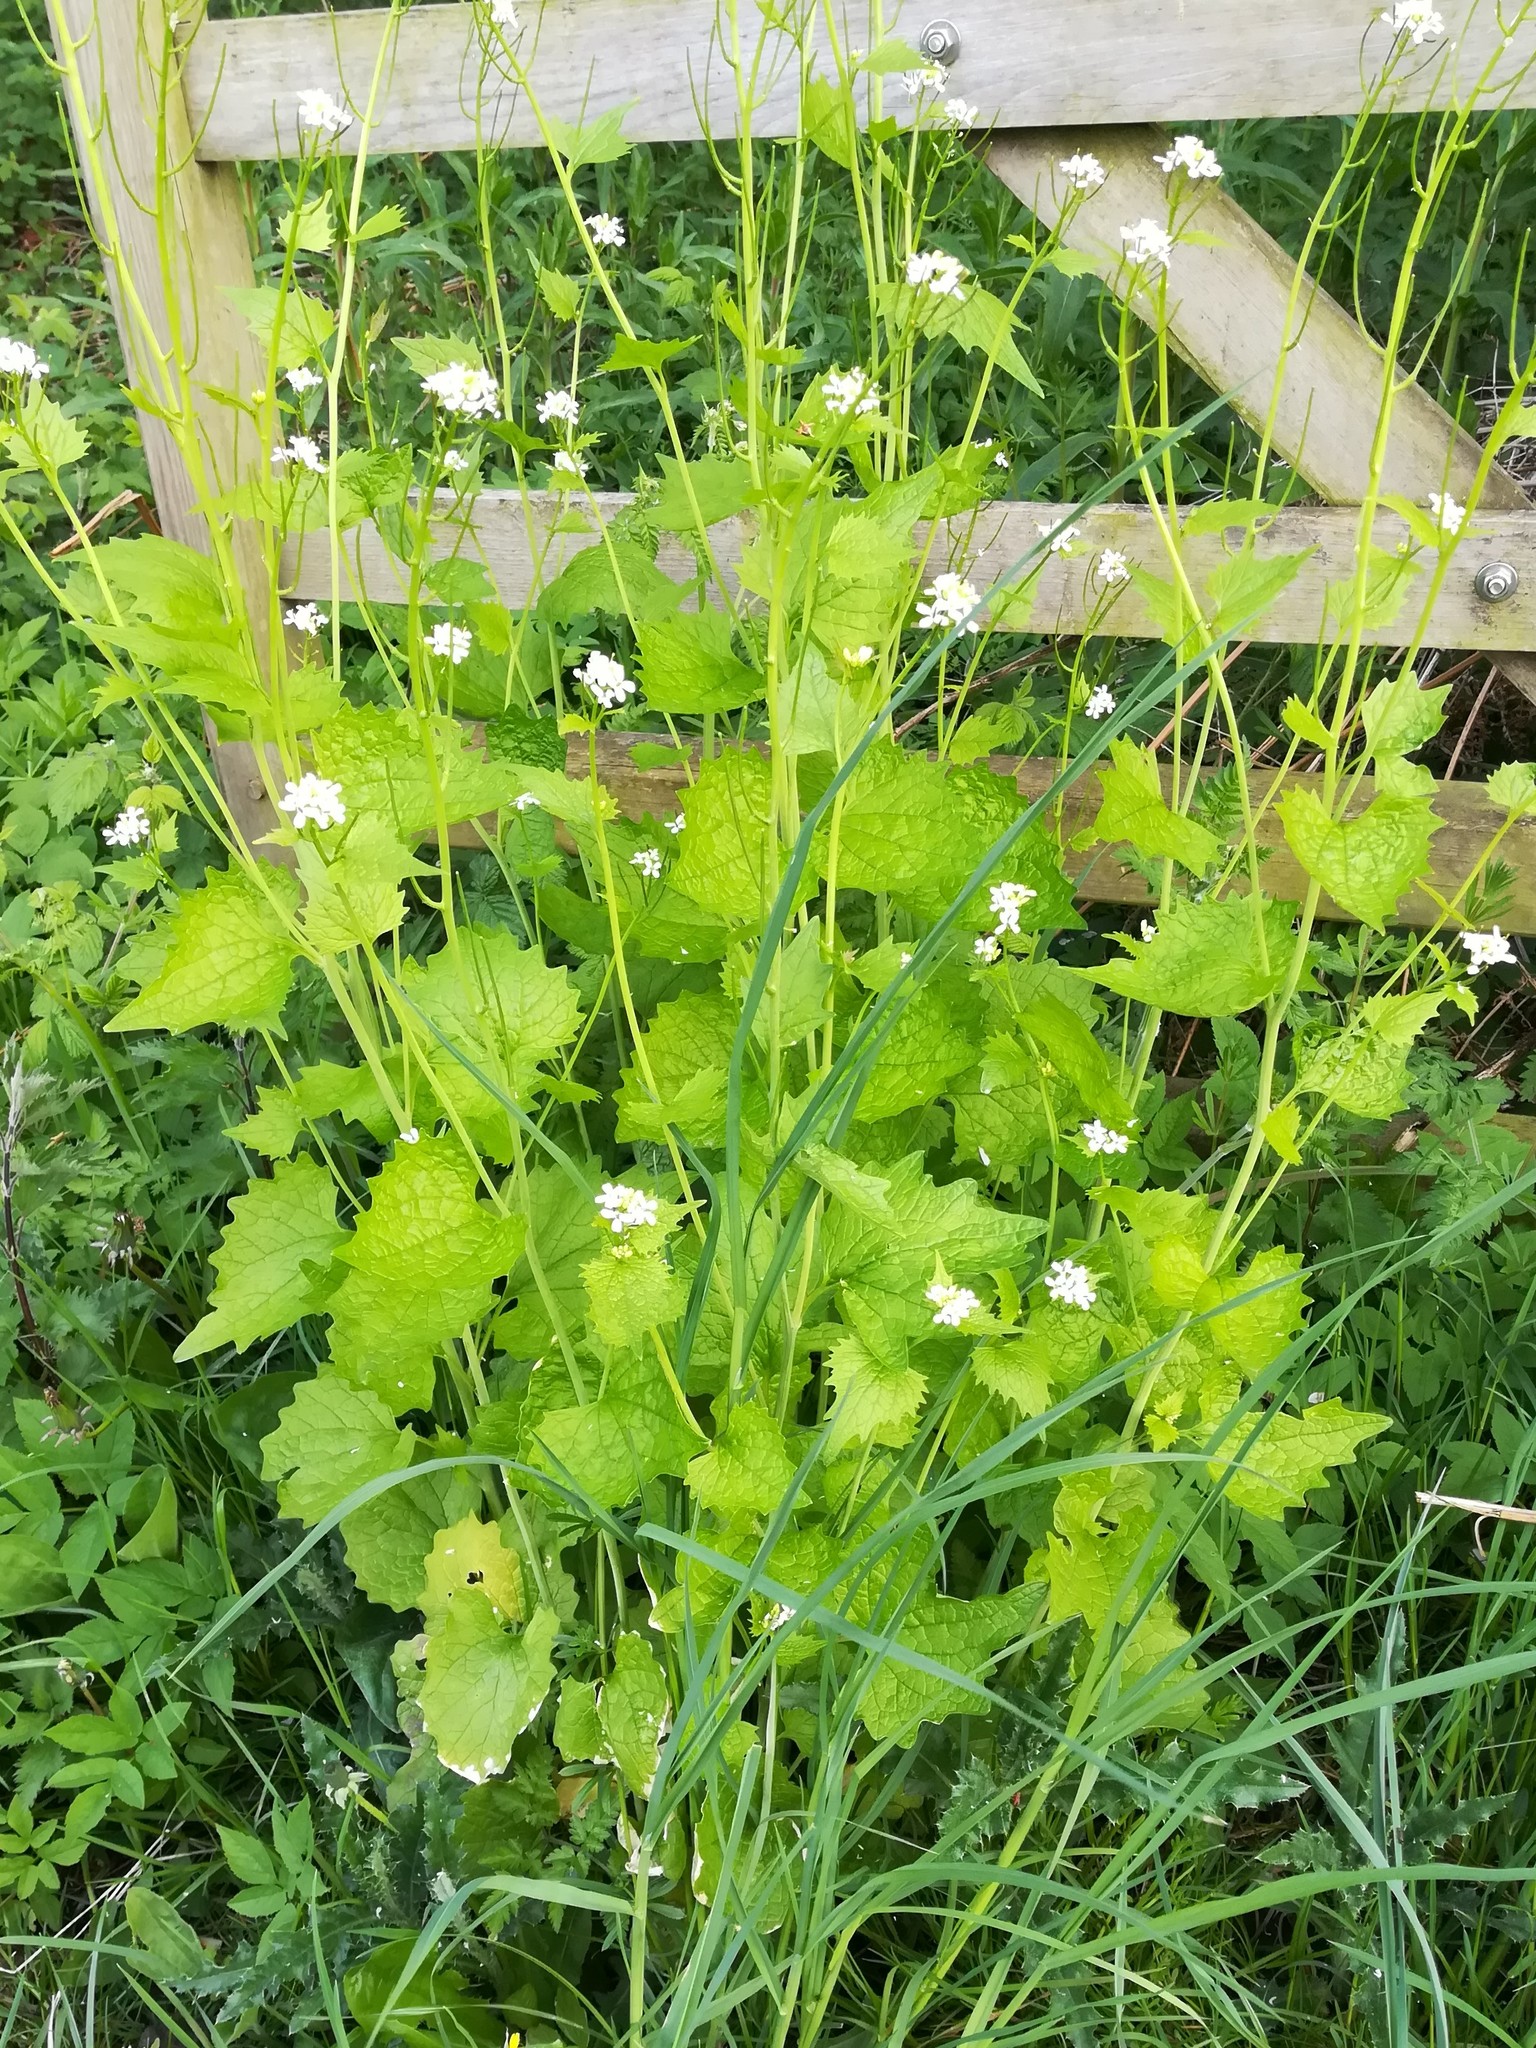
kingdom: Plantae
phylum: Tracheophyta
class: Magnoliopsida
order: Brassicales
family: Brassicaceae
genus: Alliaria
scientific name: Alliaria petiolata
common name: Garlic mustard
